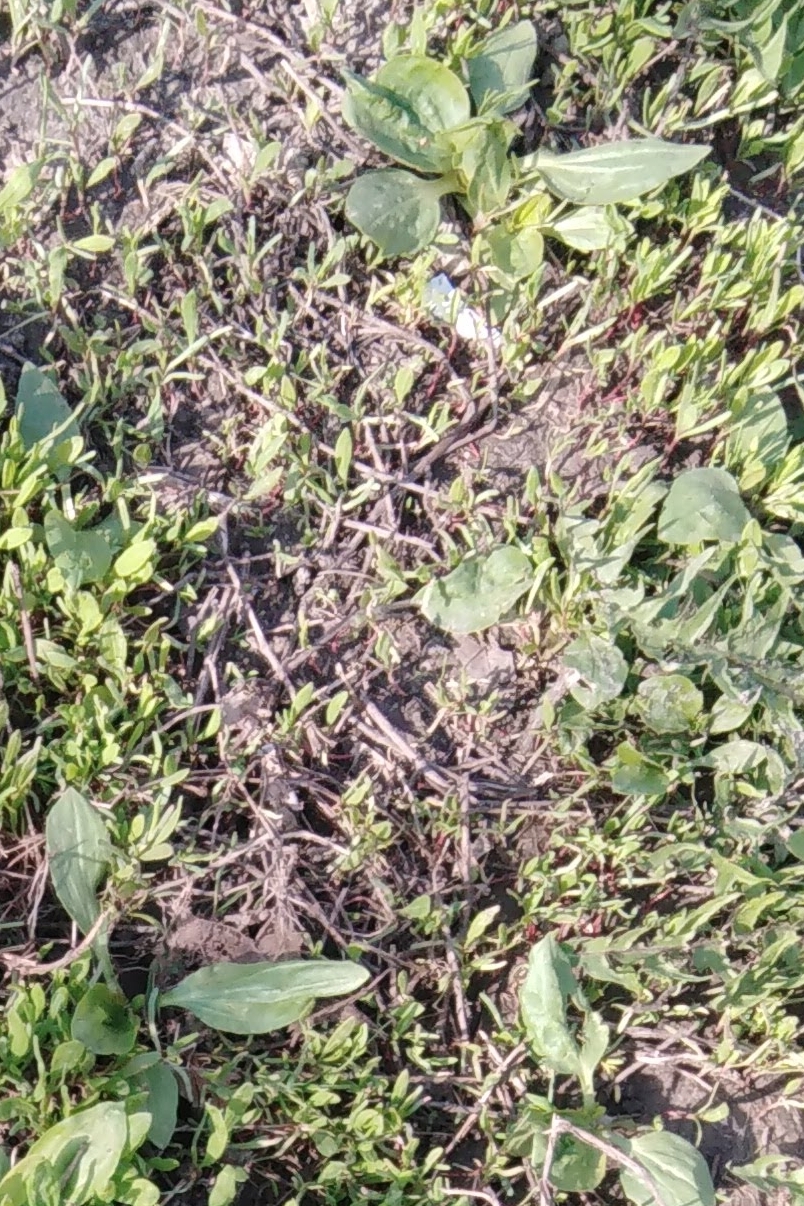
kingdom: Plantae
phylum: Tracheophyta
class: Magnoliopsida
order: Lamiales
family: Plantaginaceae
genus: Plantago
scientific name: Plantago major
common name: Common plantain
